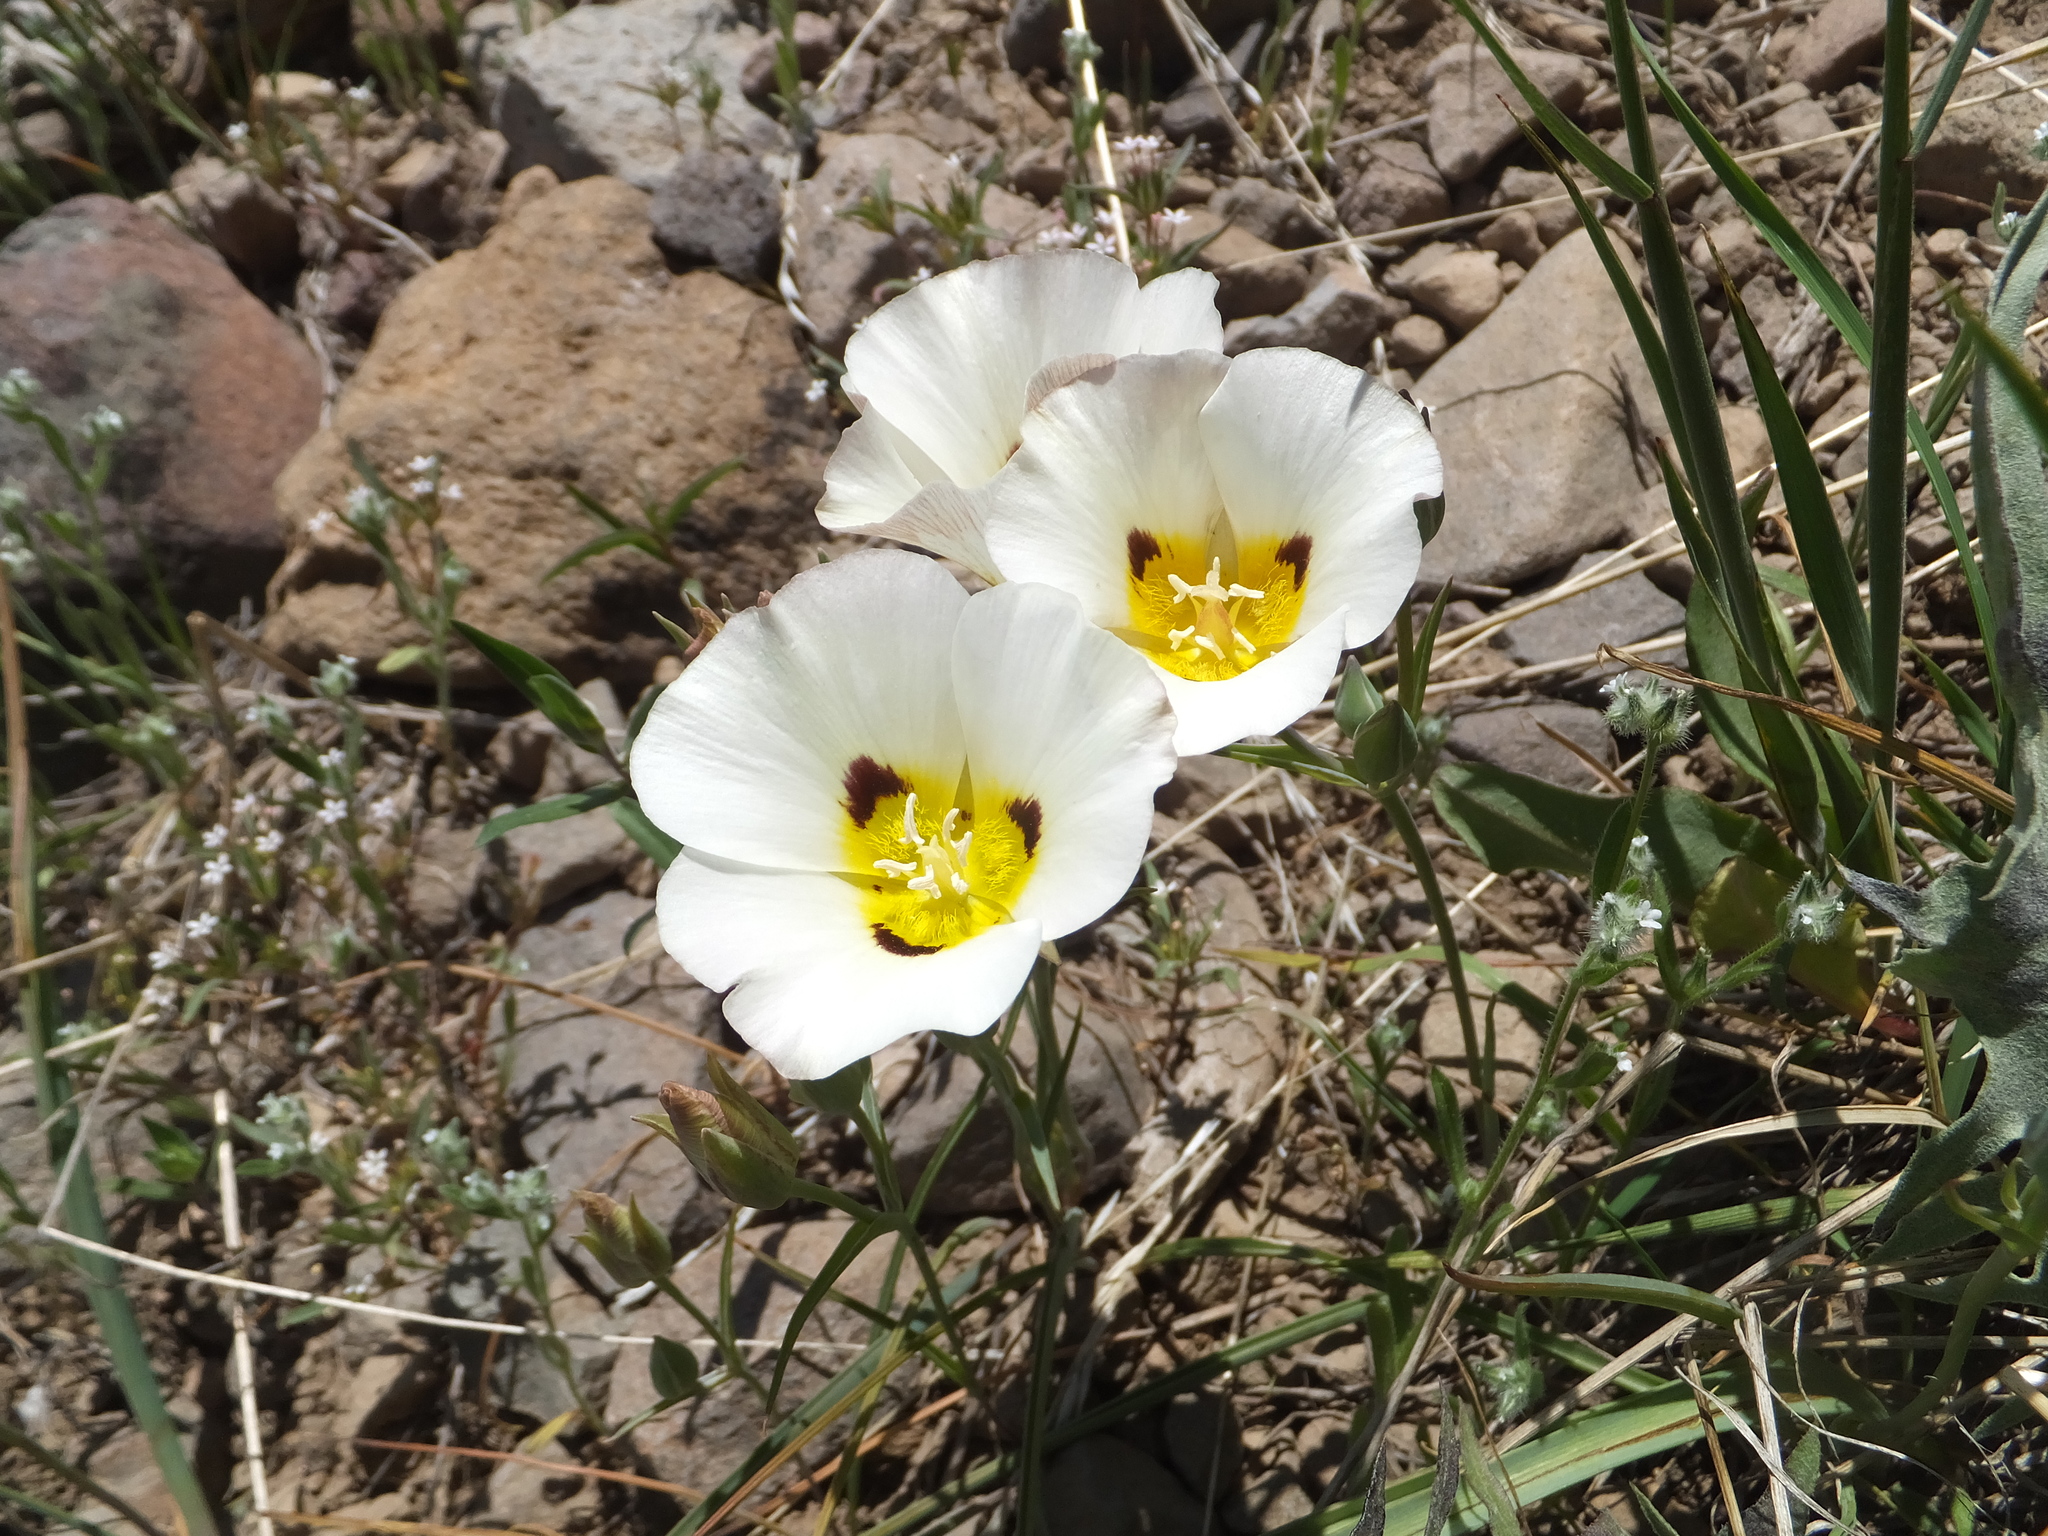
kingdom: Plantae
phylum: Tracheophyta
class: Liliopsida
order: Liliales
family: Liliaceae
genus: Calochortus
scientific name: Calochortus leichtlinii
